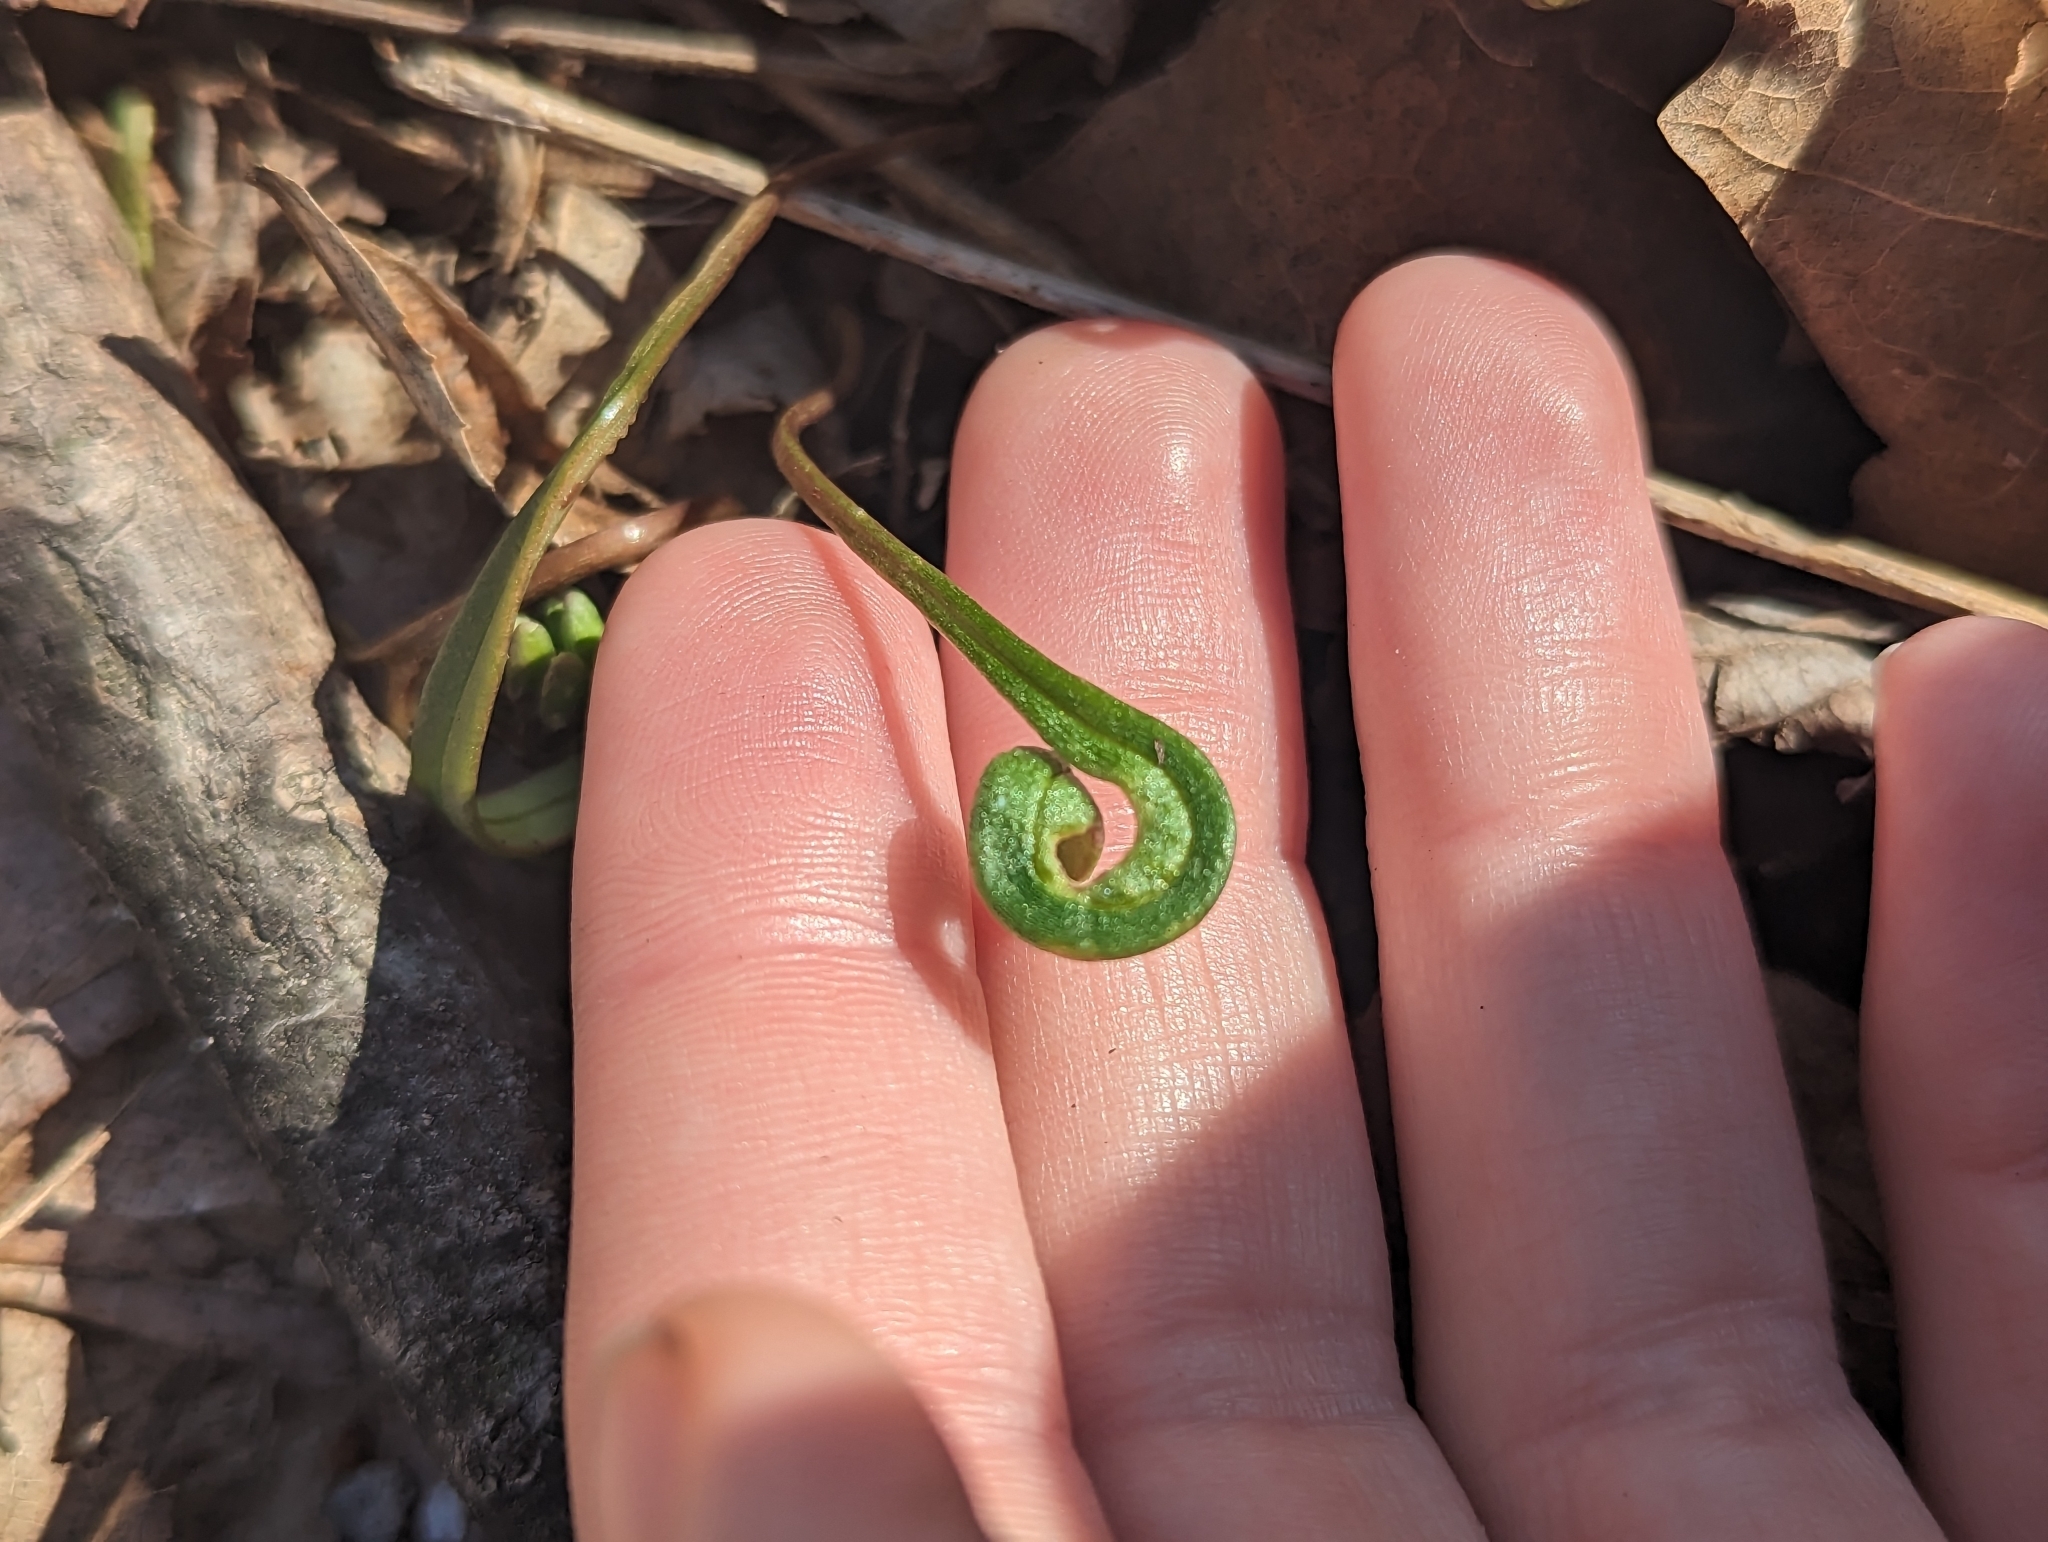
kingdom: Fungi
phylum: Basidiomycota
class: Pucciniomycetes
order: Pucciniales
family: Pucciniaceae
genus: Puccinia
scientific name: Puccinia mariae-wilsoniae
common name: Spring beauty rust
